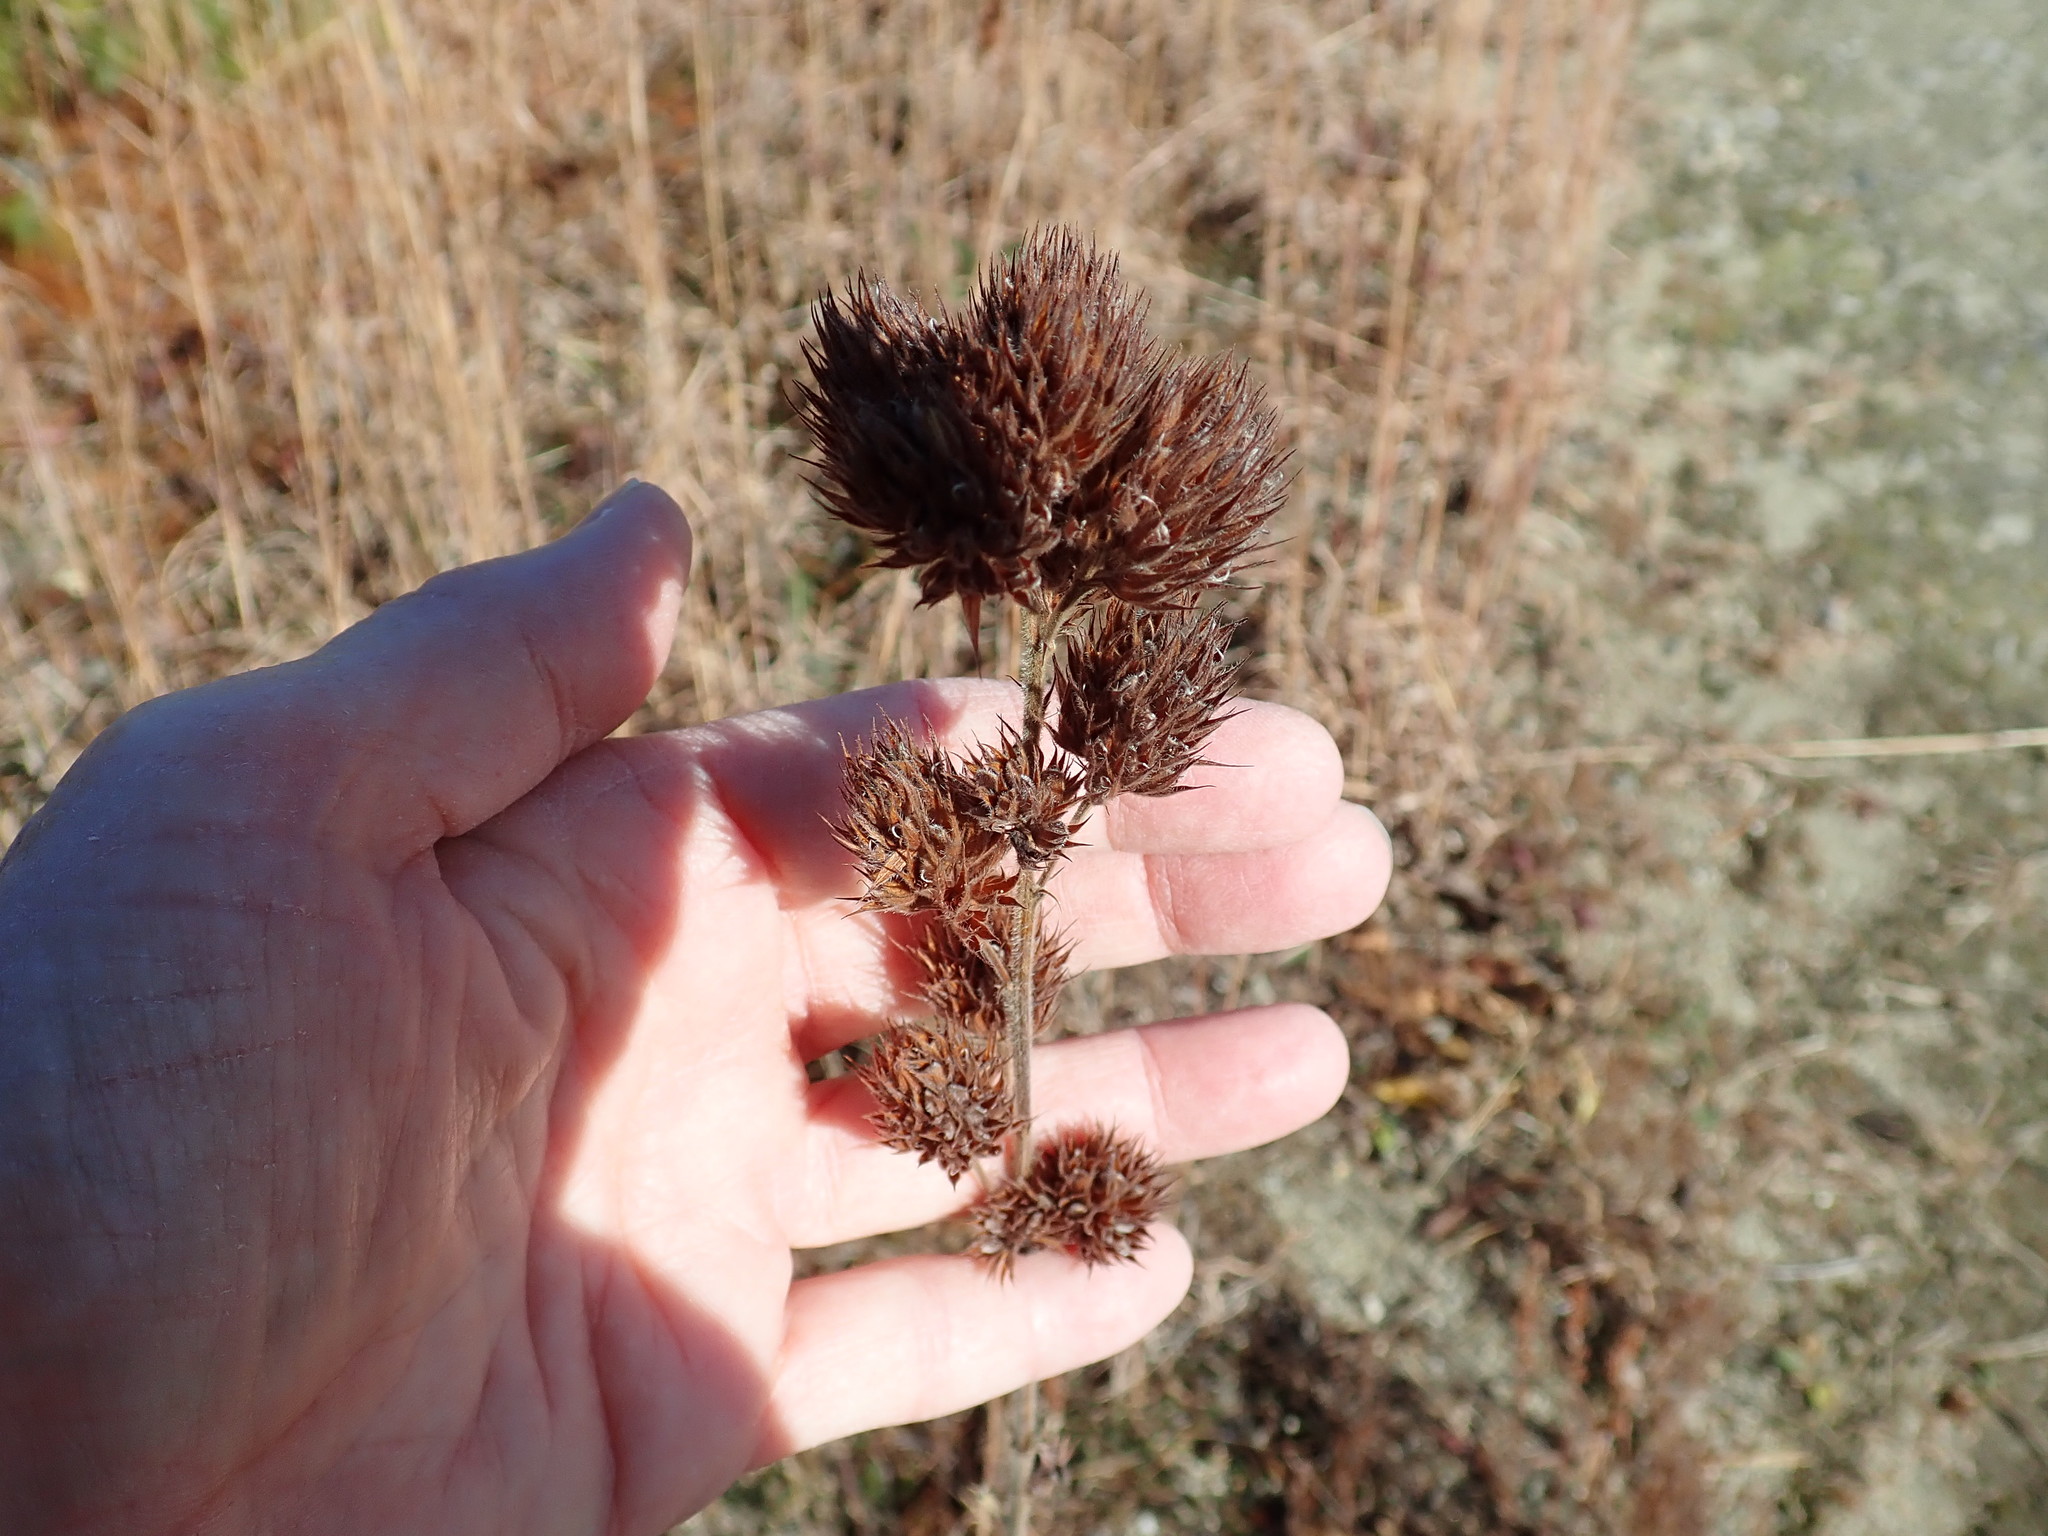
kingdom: Plantae
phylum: Tracheophyta
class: Magnoliopsida
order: Fabales
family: Fabaceae
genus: Lespedeza
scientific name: Lespedeza capitata
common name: Dusty clover
